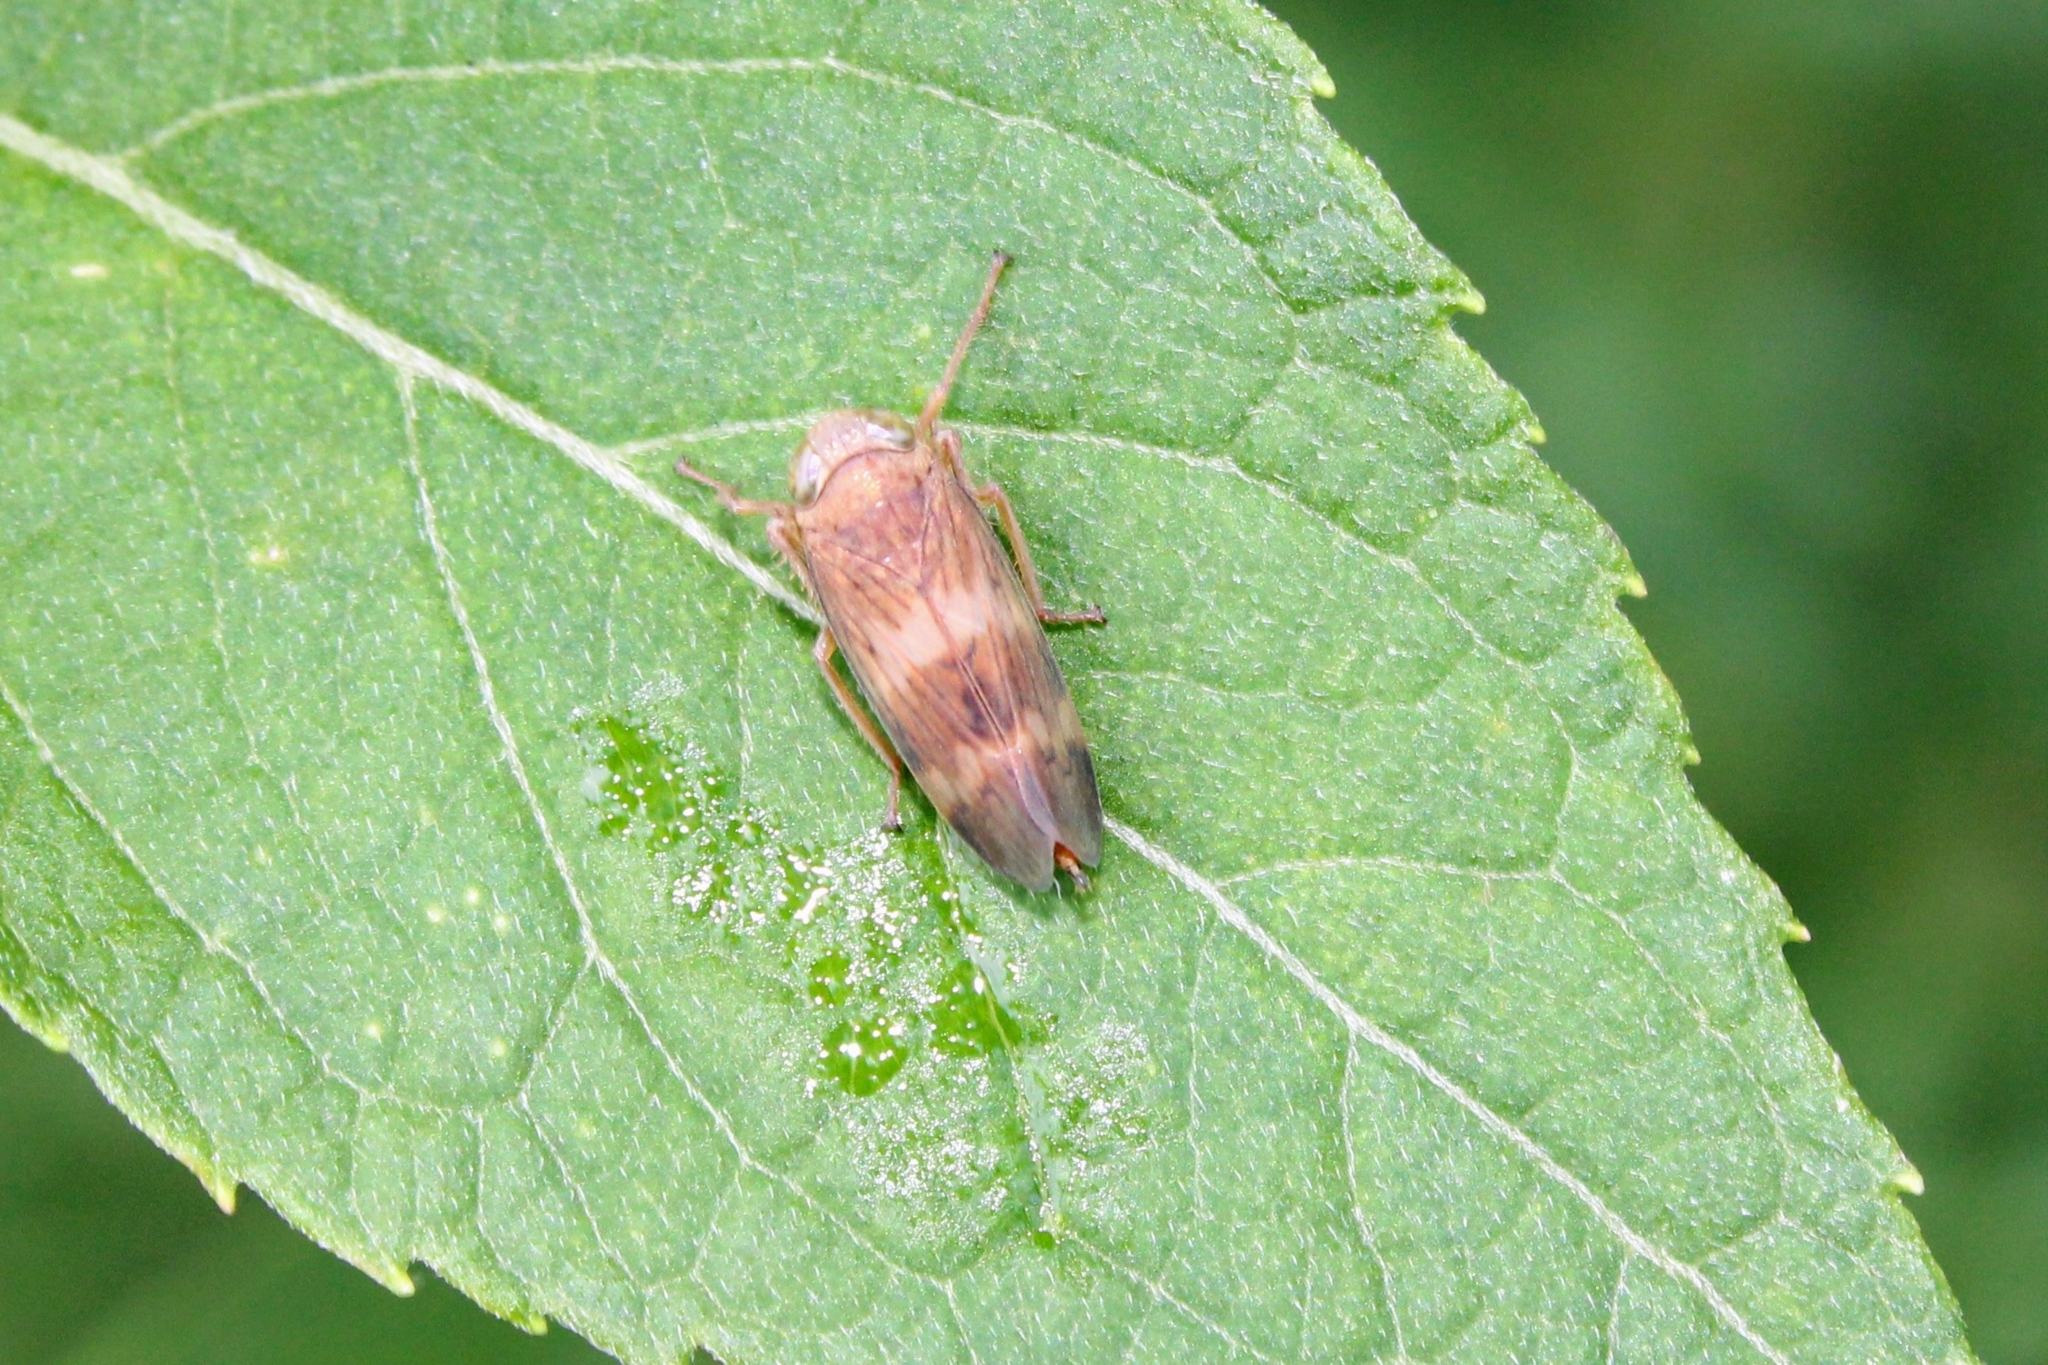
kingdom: Animalia
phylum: Arthropoda
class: Insecta
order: Hemiptera
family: Cicadellidae
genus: Jikradia
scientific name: Jikradia olitoria
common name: Coppery leafhopper
